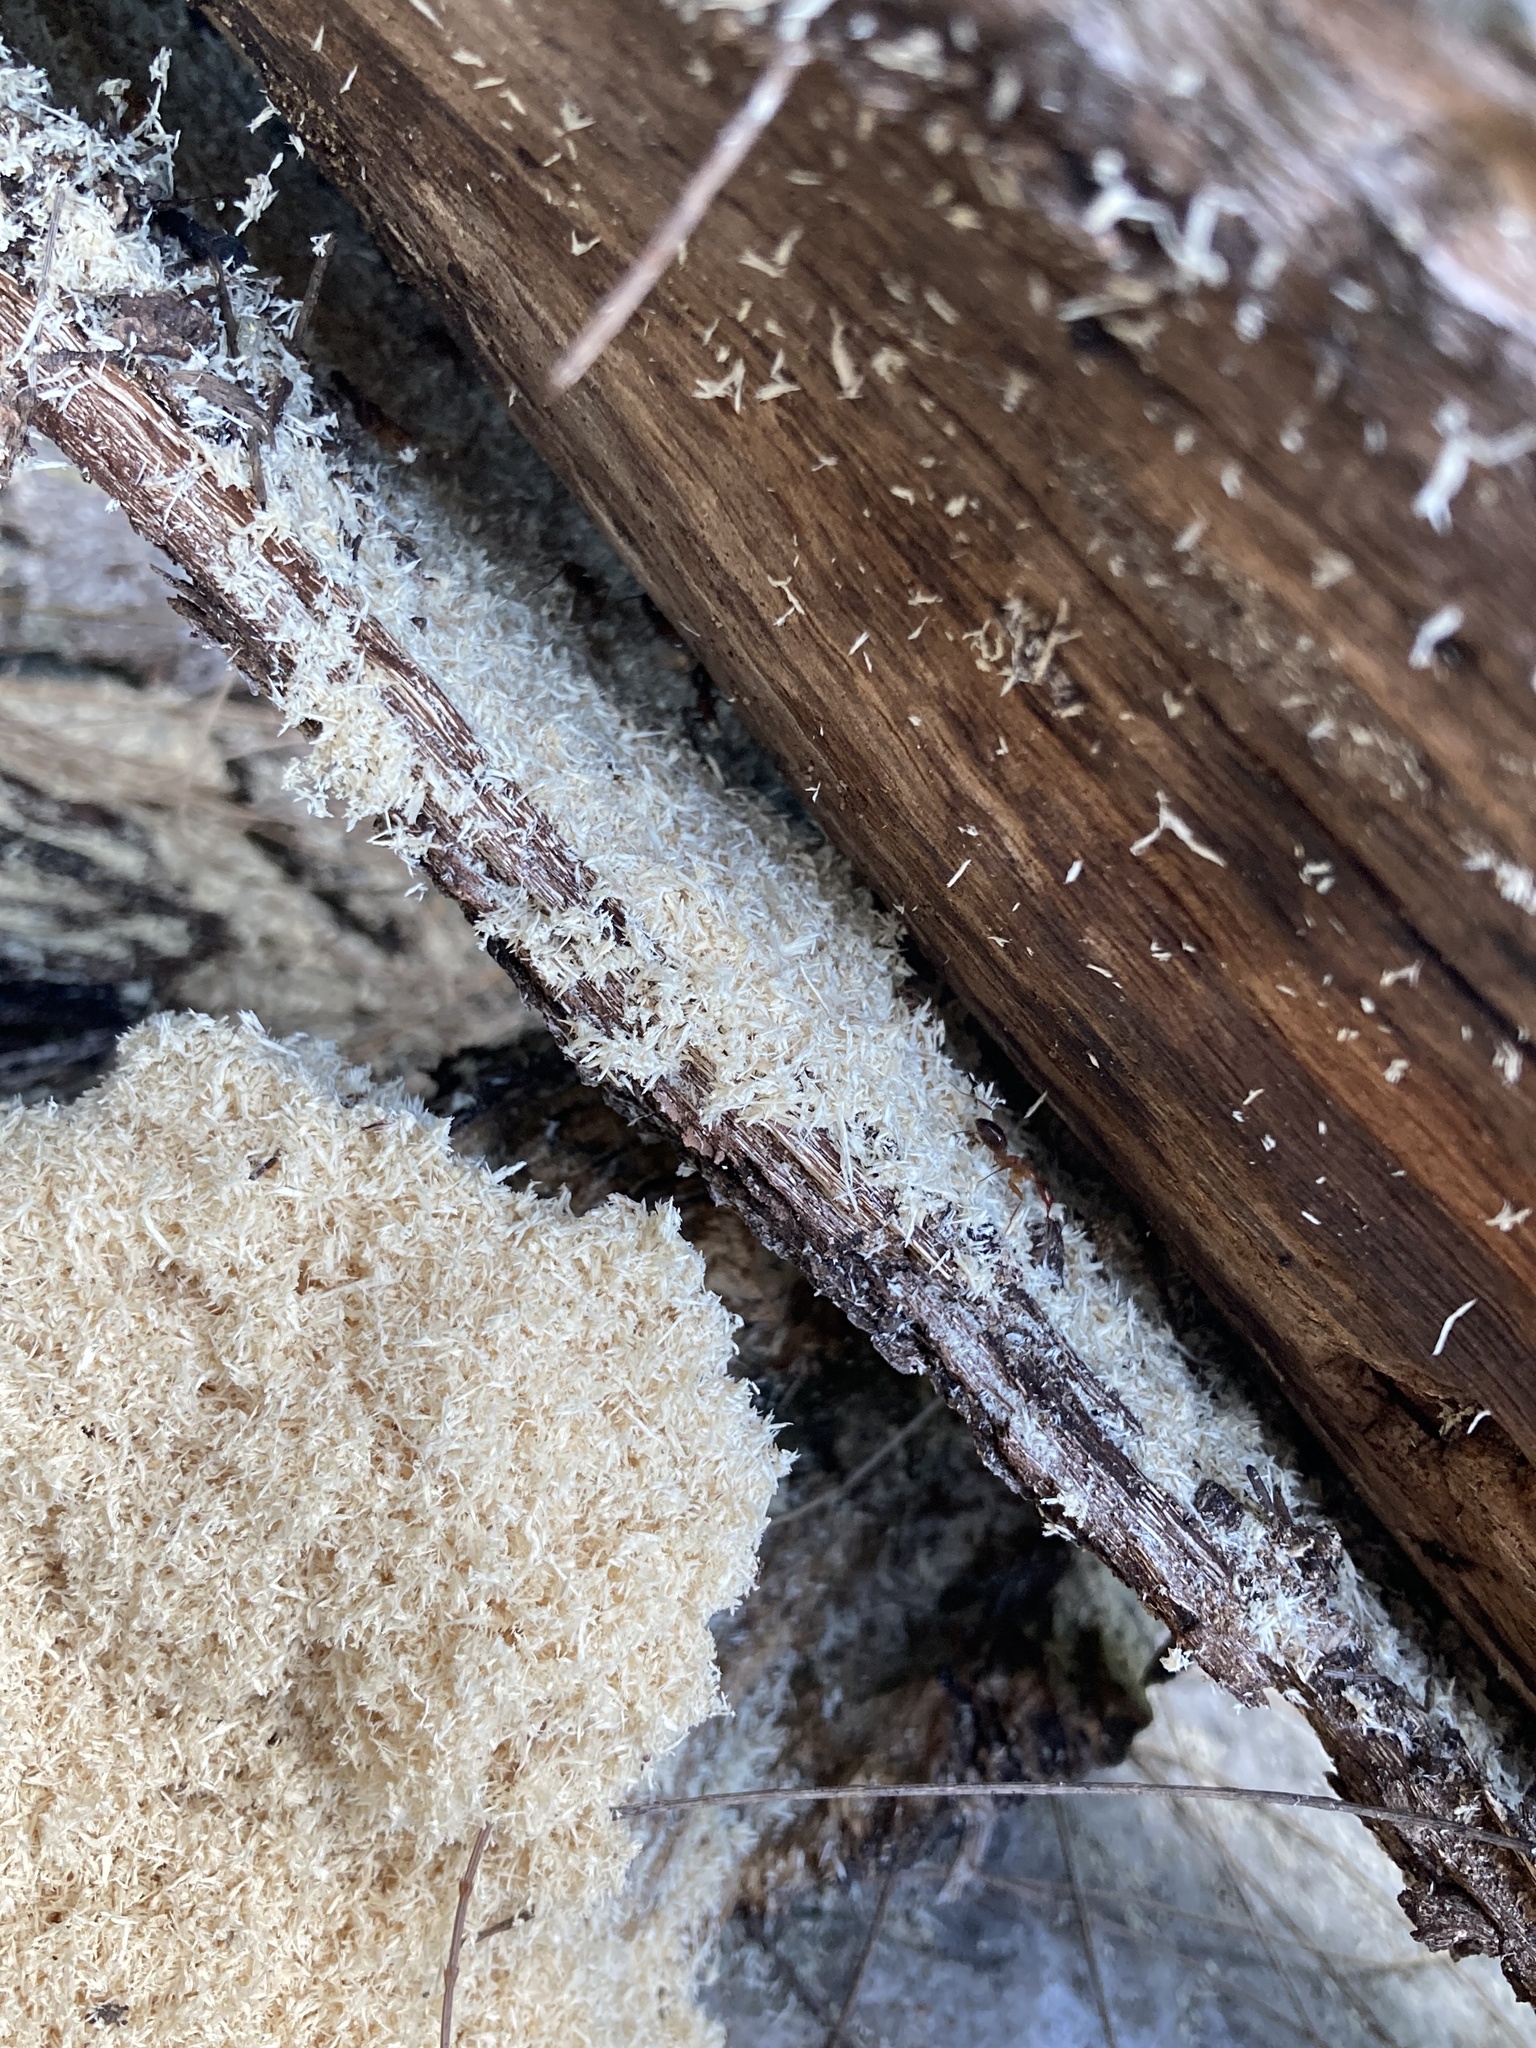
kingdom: Animalia
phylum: Arthropoda
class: Insecta
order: Hymenoptera
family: Formicidae
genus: Camponotus
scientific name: Camponotus floridanus
